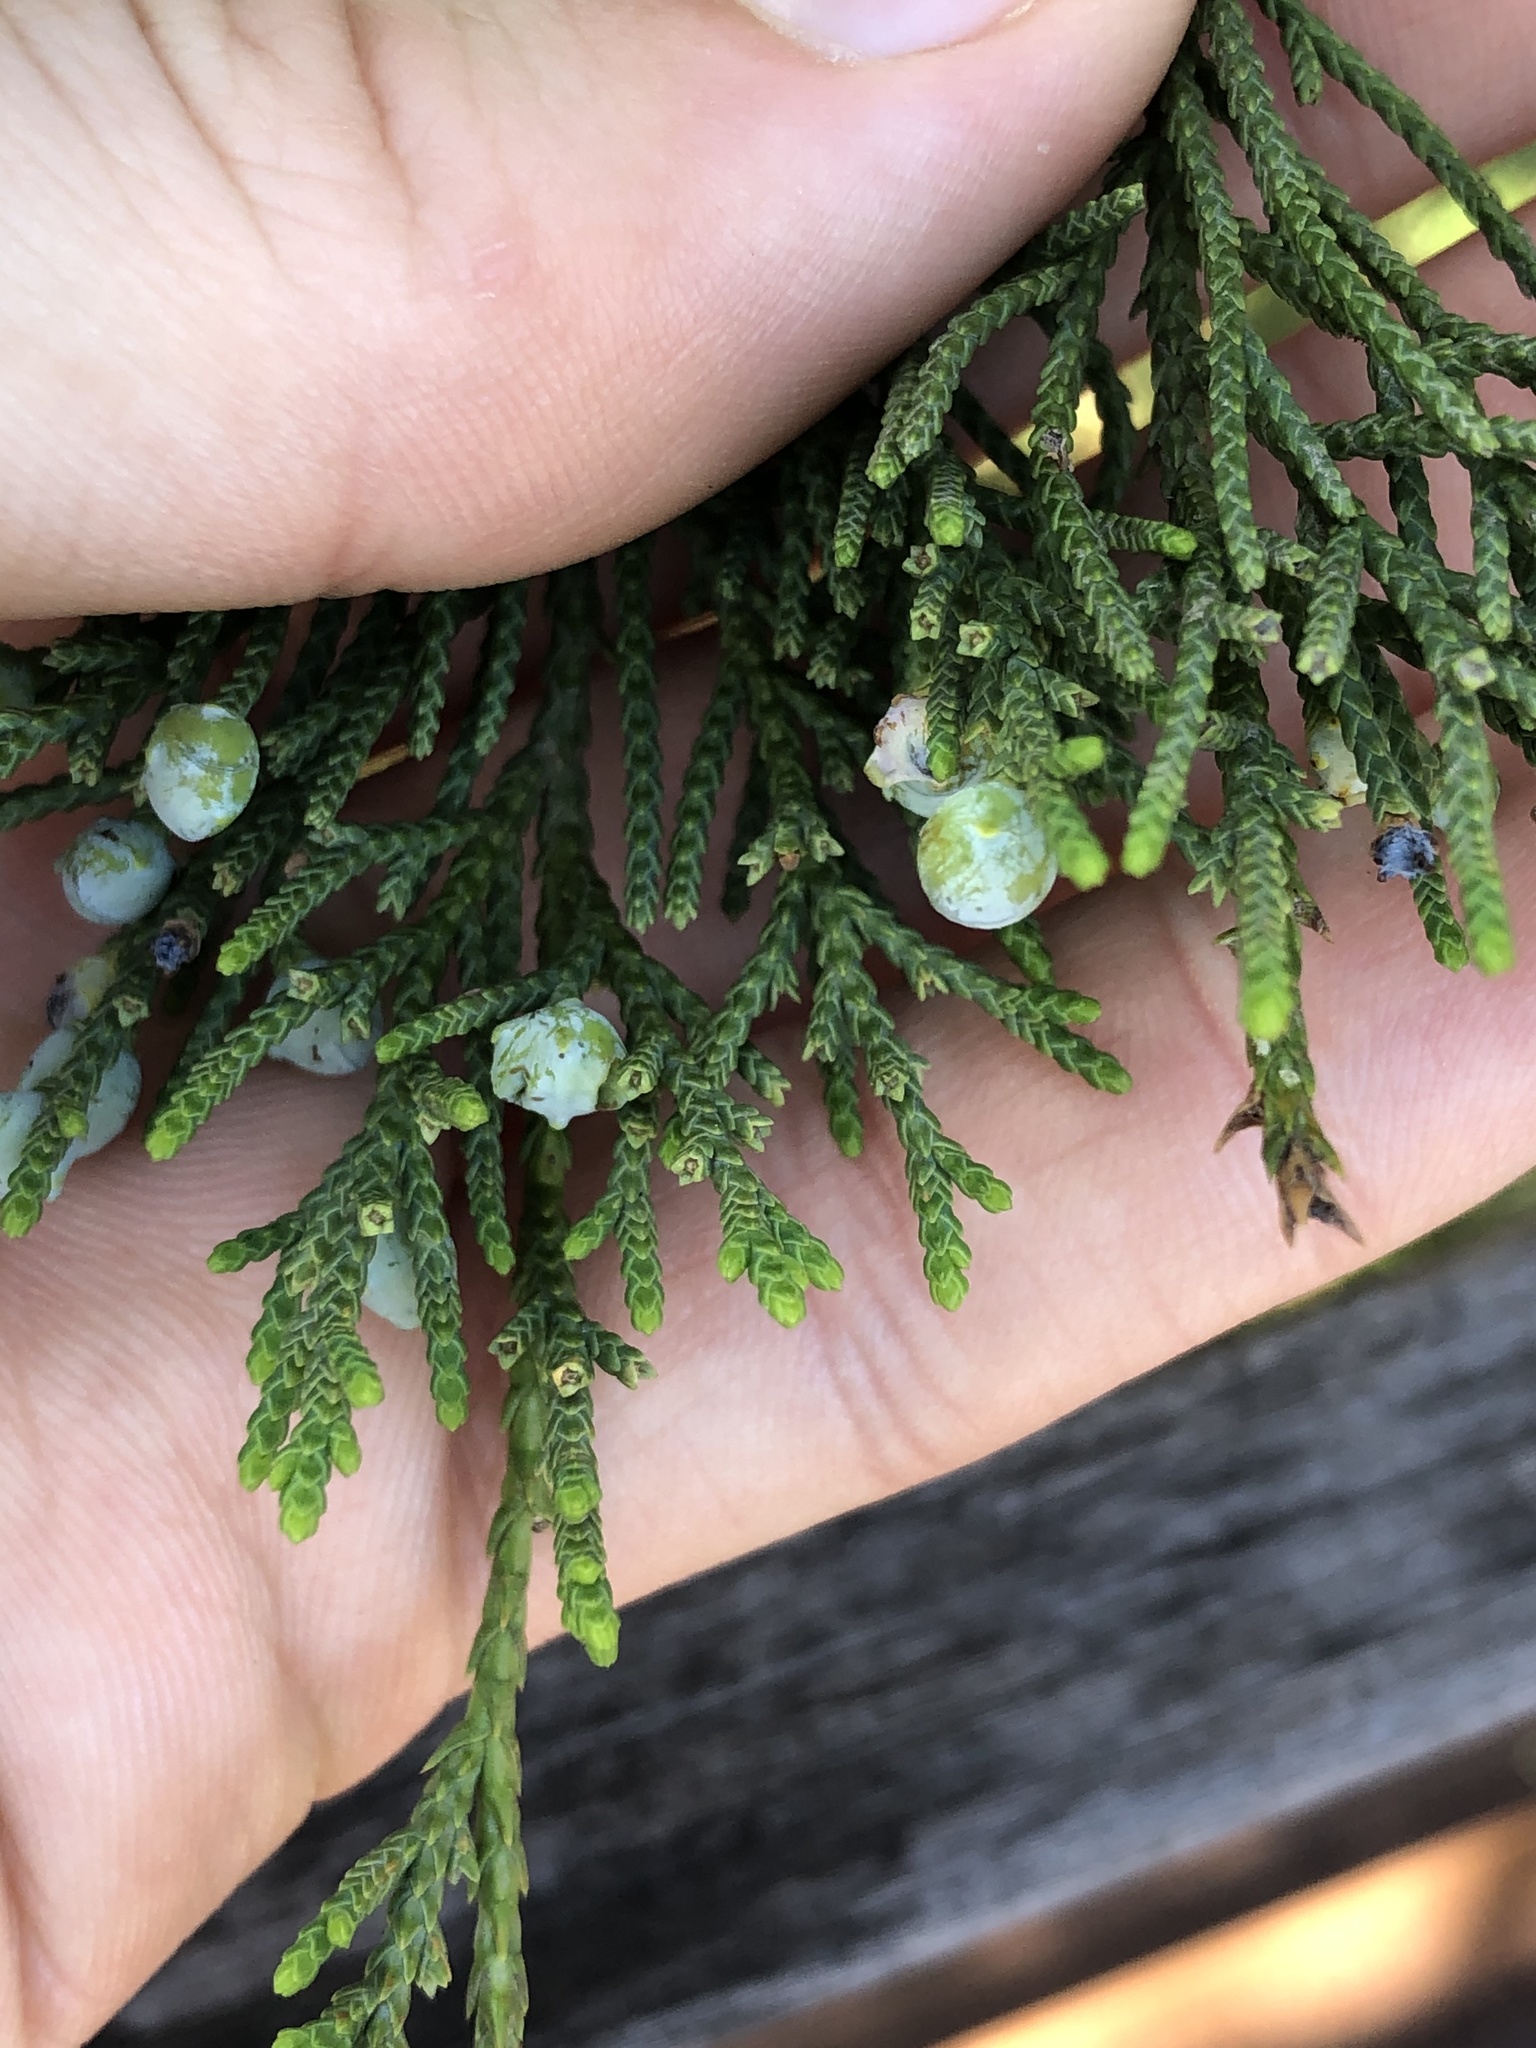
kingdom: Plantae
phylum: Tracheophyta
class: Pinopsida
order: Pinales
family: Cupressaceae
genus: Juniperus
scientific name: Juniperus ashei
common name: Mexican juniper
